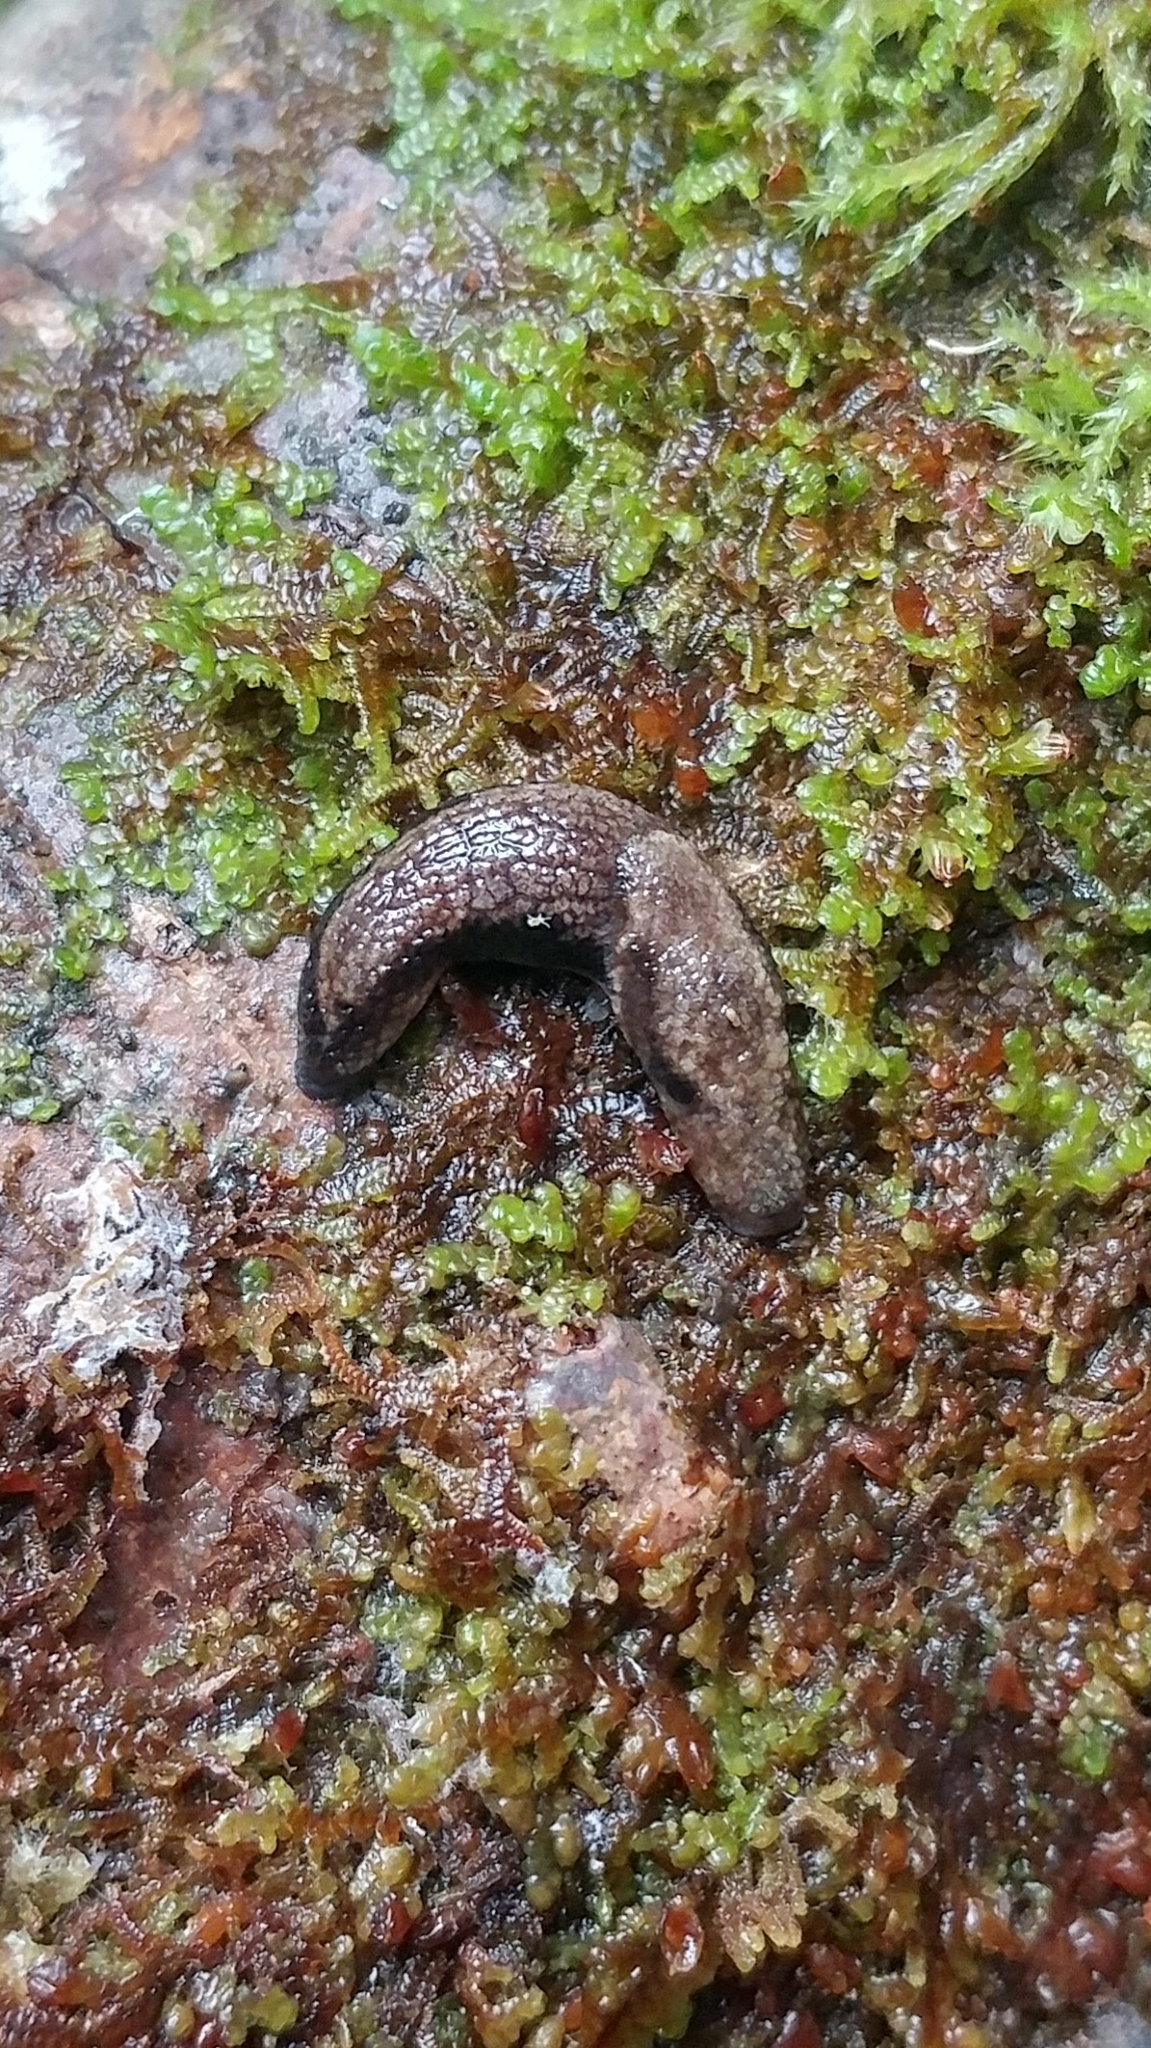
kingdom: Animalia
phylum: Mollusca
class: Gastropoda
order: Stylommatophora
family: Ariolimacidae
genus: Prophysaon
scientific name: Prophysaon vanattae
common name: Scarletback taildropper
